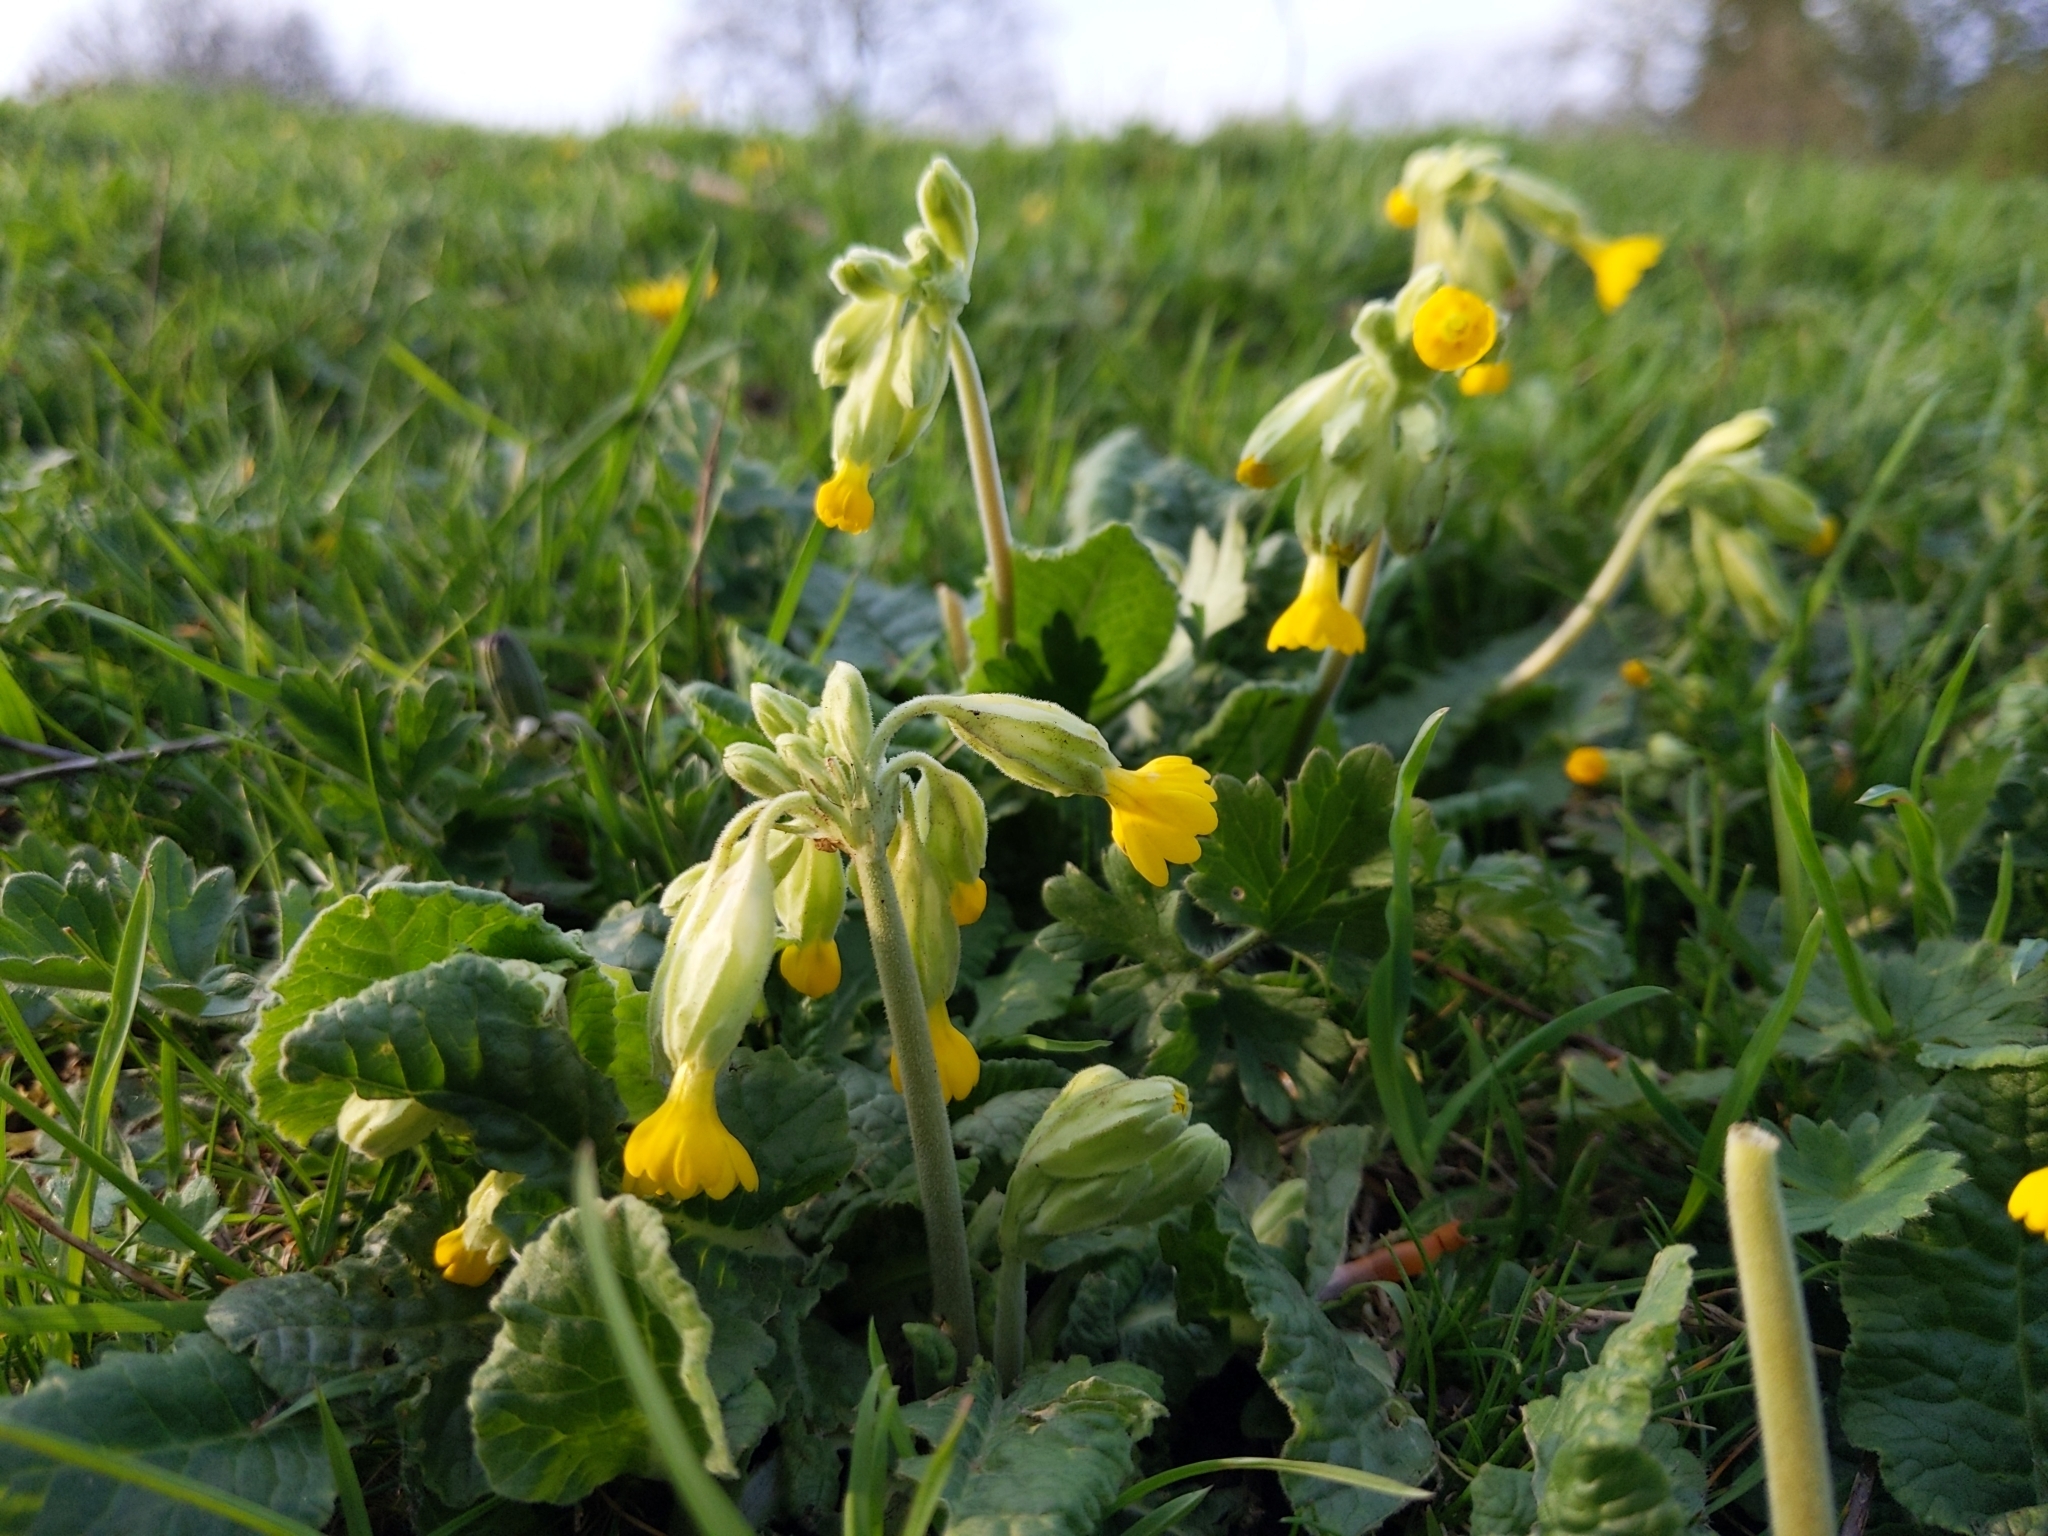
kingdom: Plantae
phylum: Tracheophyta
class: Magnoliopsida
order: Ericales
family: Primulaceae
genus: Primula
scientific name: Primula veris
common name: Cowslip
